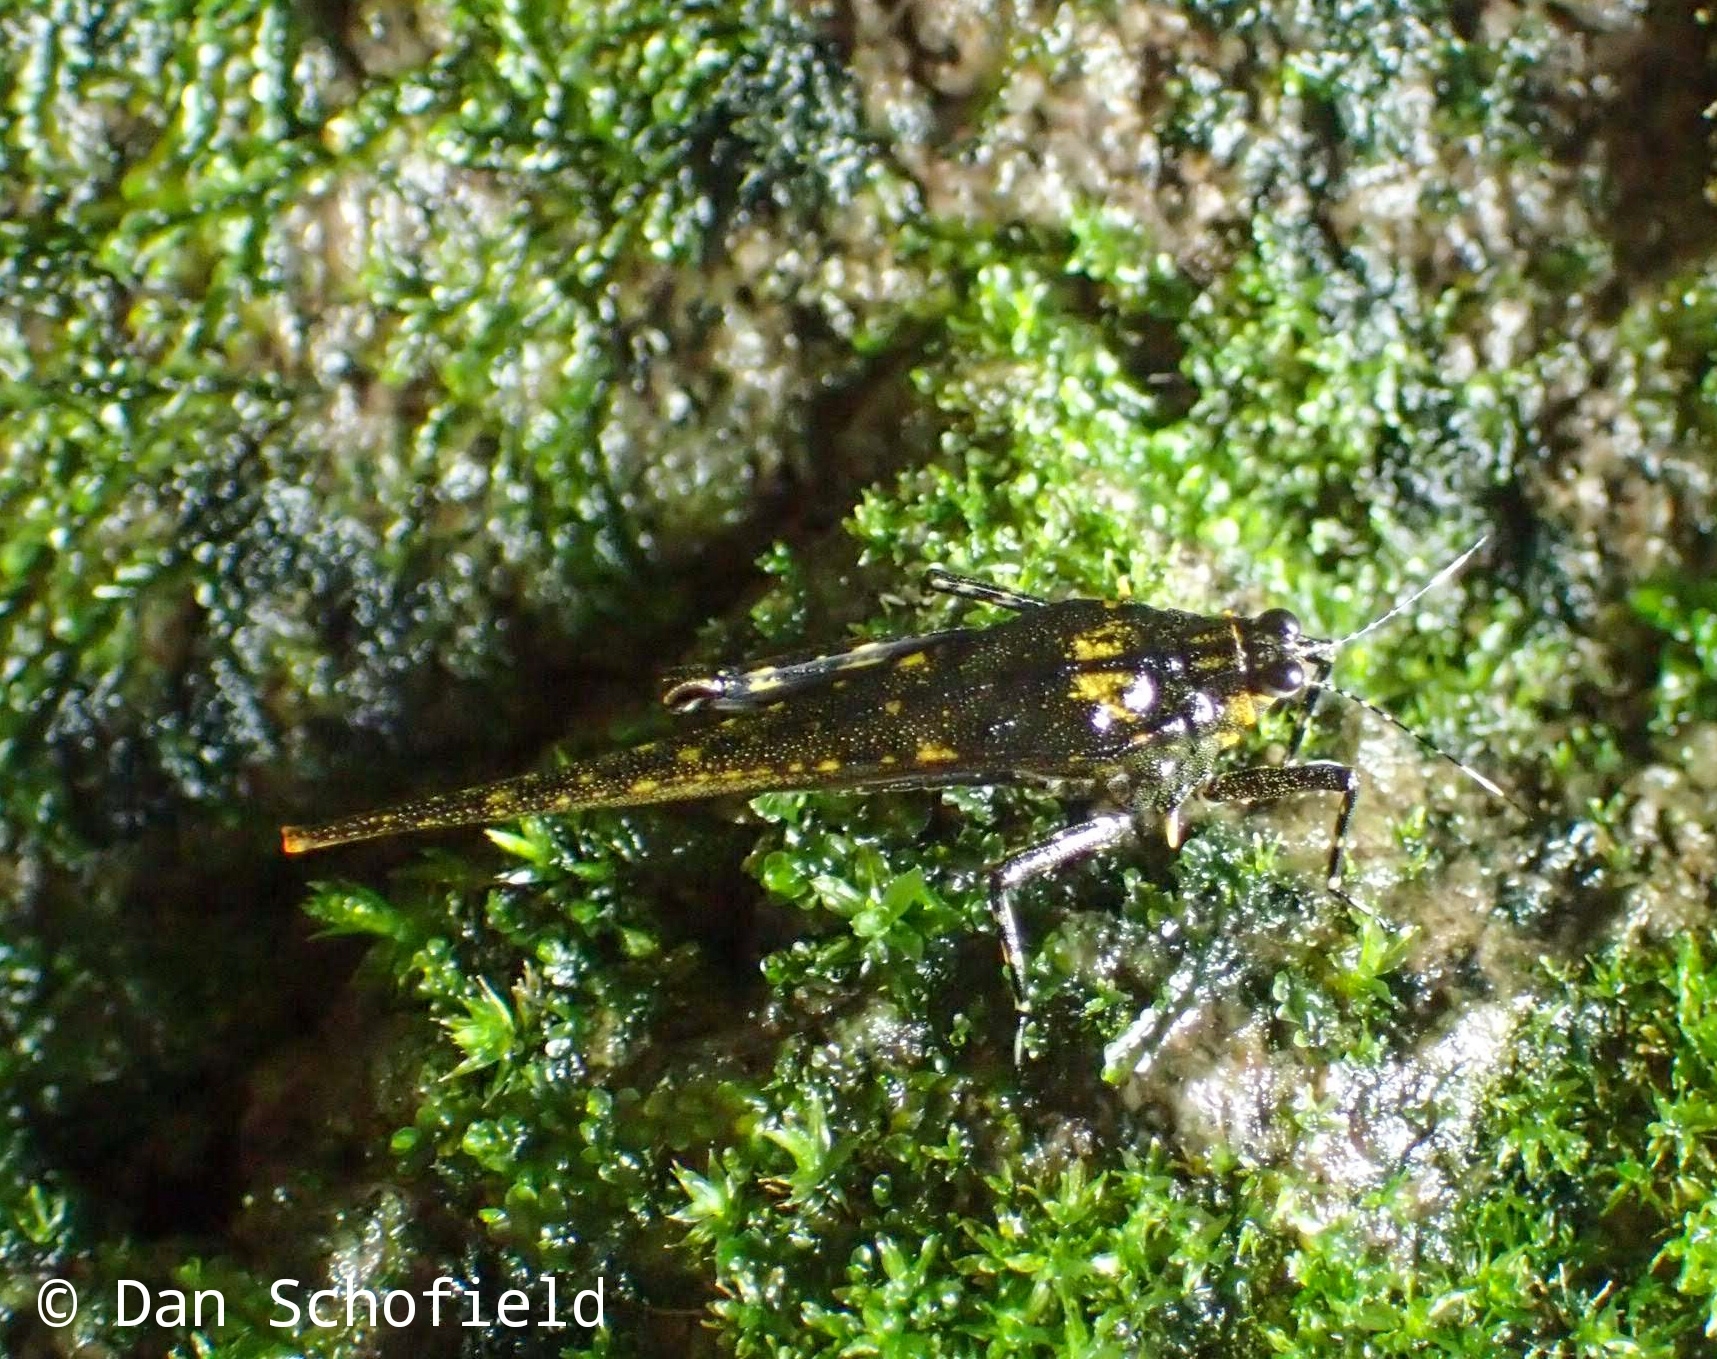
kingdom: Animalia
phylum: Arthropoda
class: Insecta
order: Orthoptera
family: Tetrigidae
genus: Tagaloscelimena
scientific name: Tagaloscelimena aurivillii
